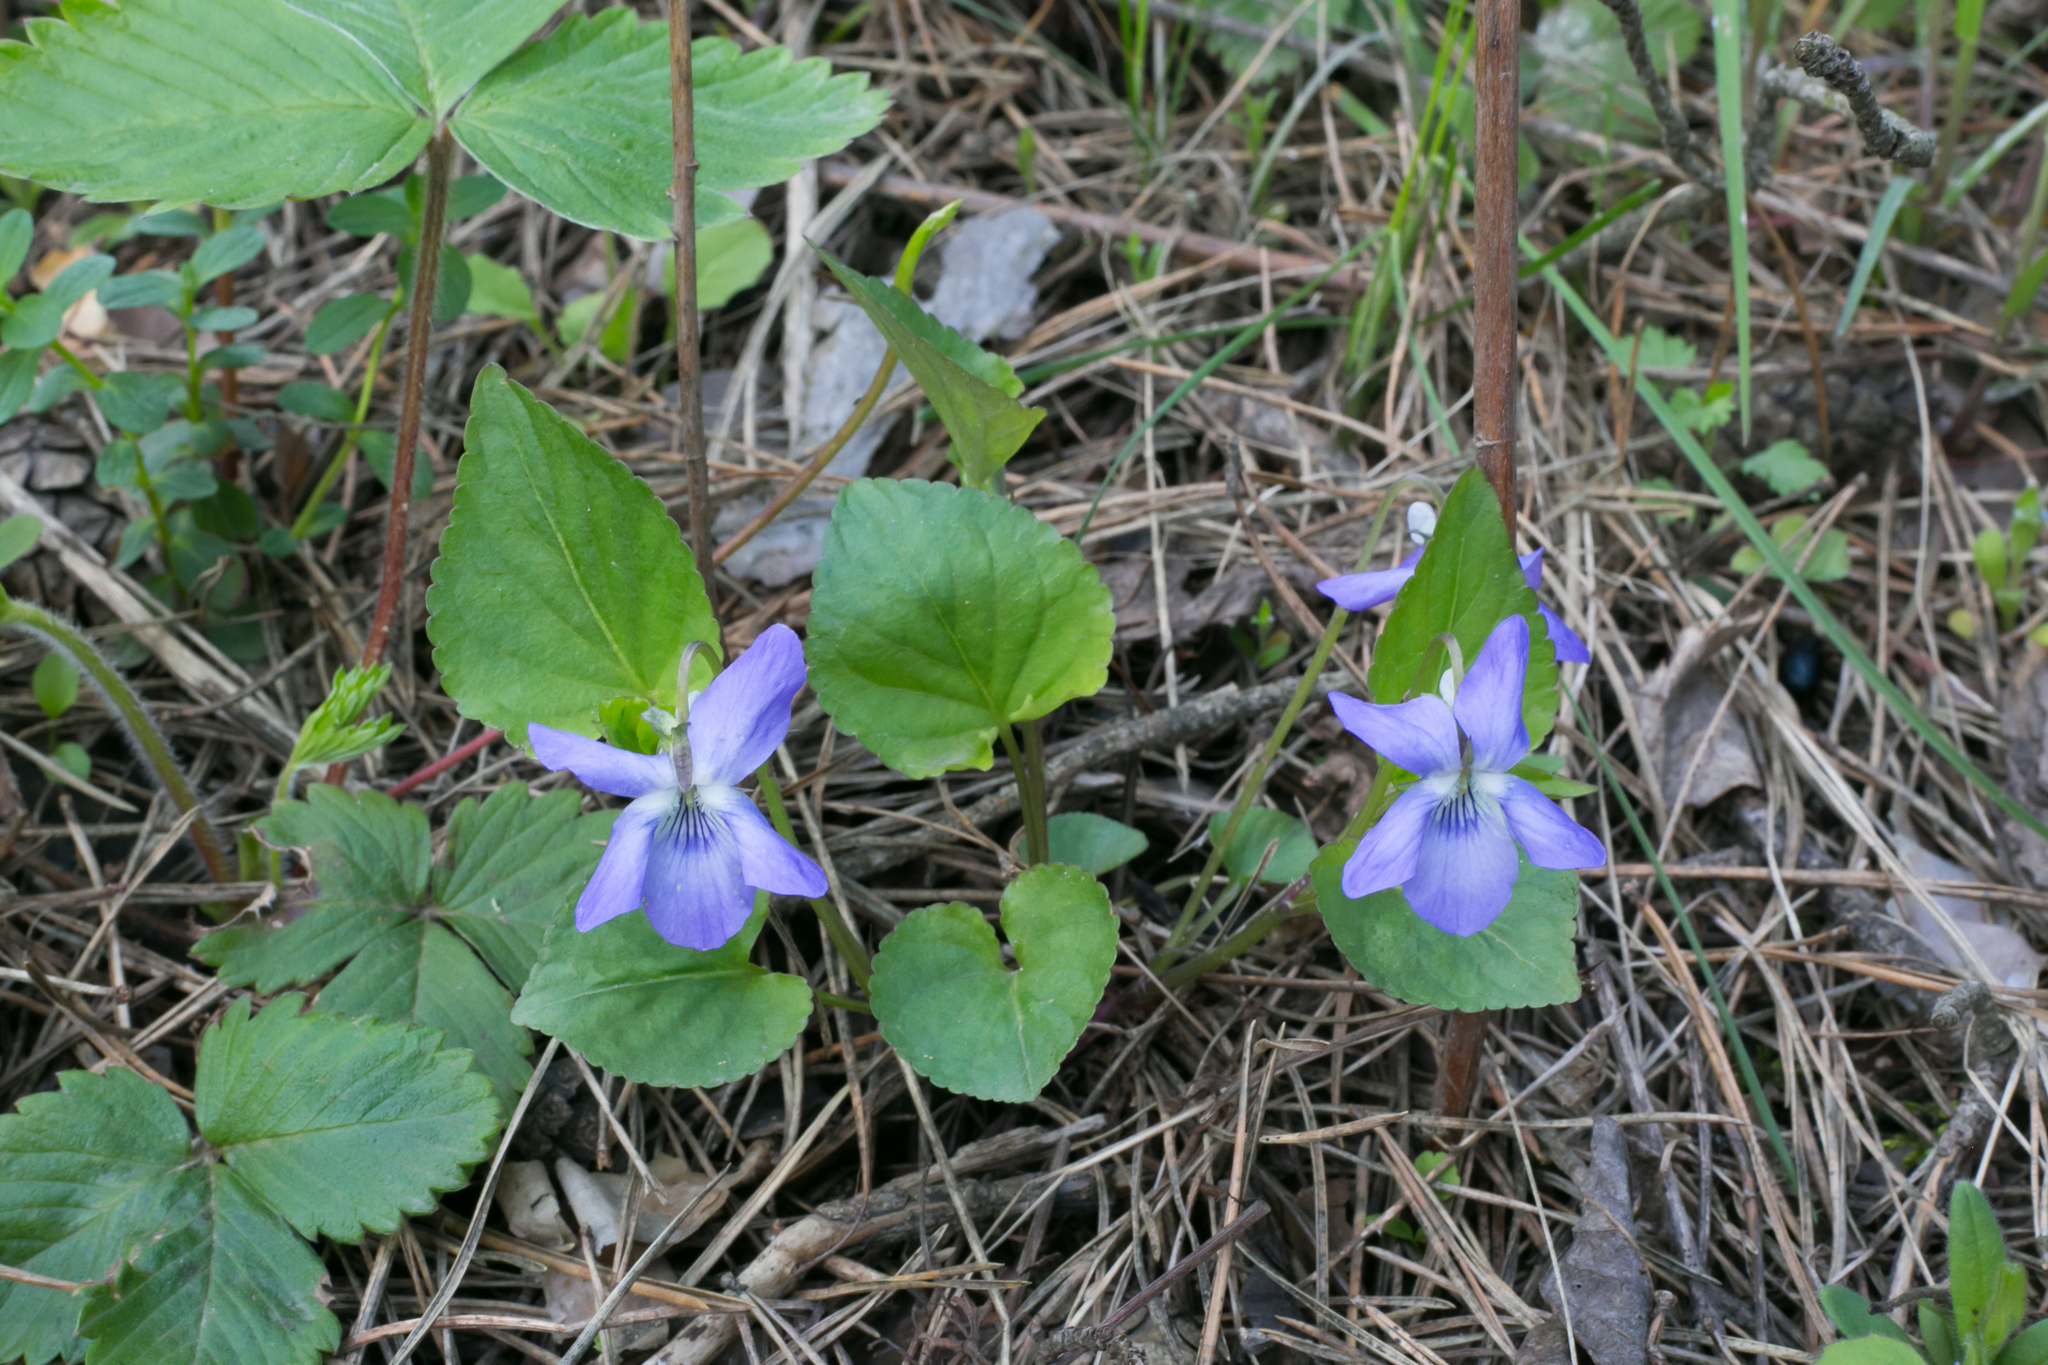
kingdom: Plantae
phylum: Tracheophyta
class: Magnoliopsida
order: Malpighiales
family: Violaceae
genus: Viola
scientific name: Viola riviniana
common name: Common dog-violet
